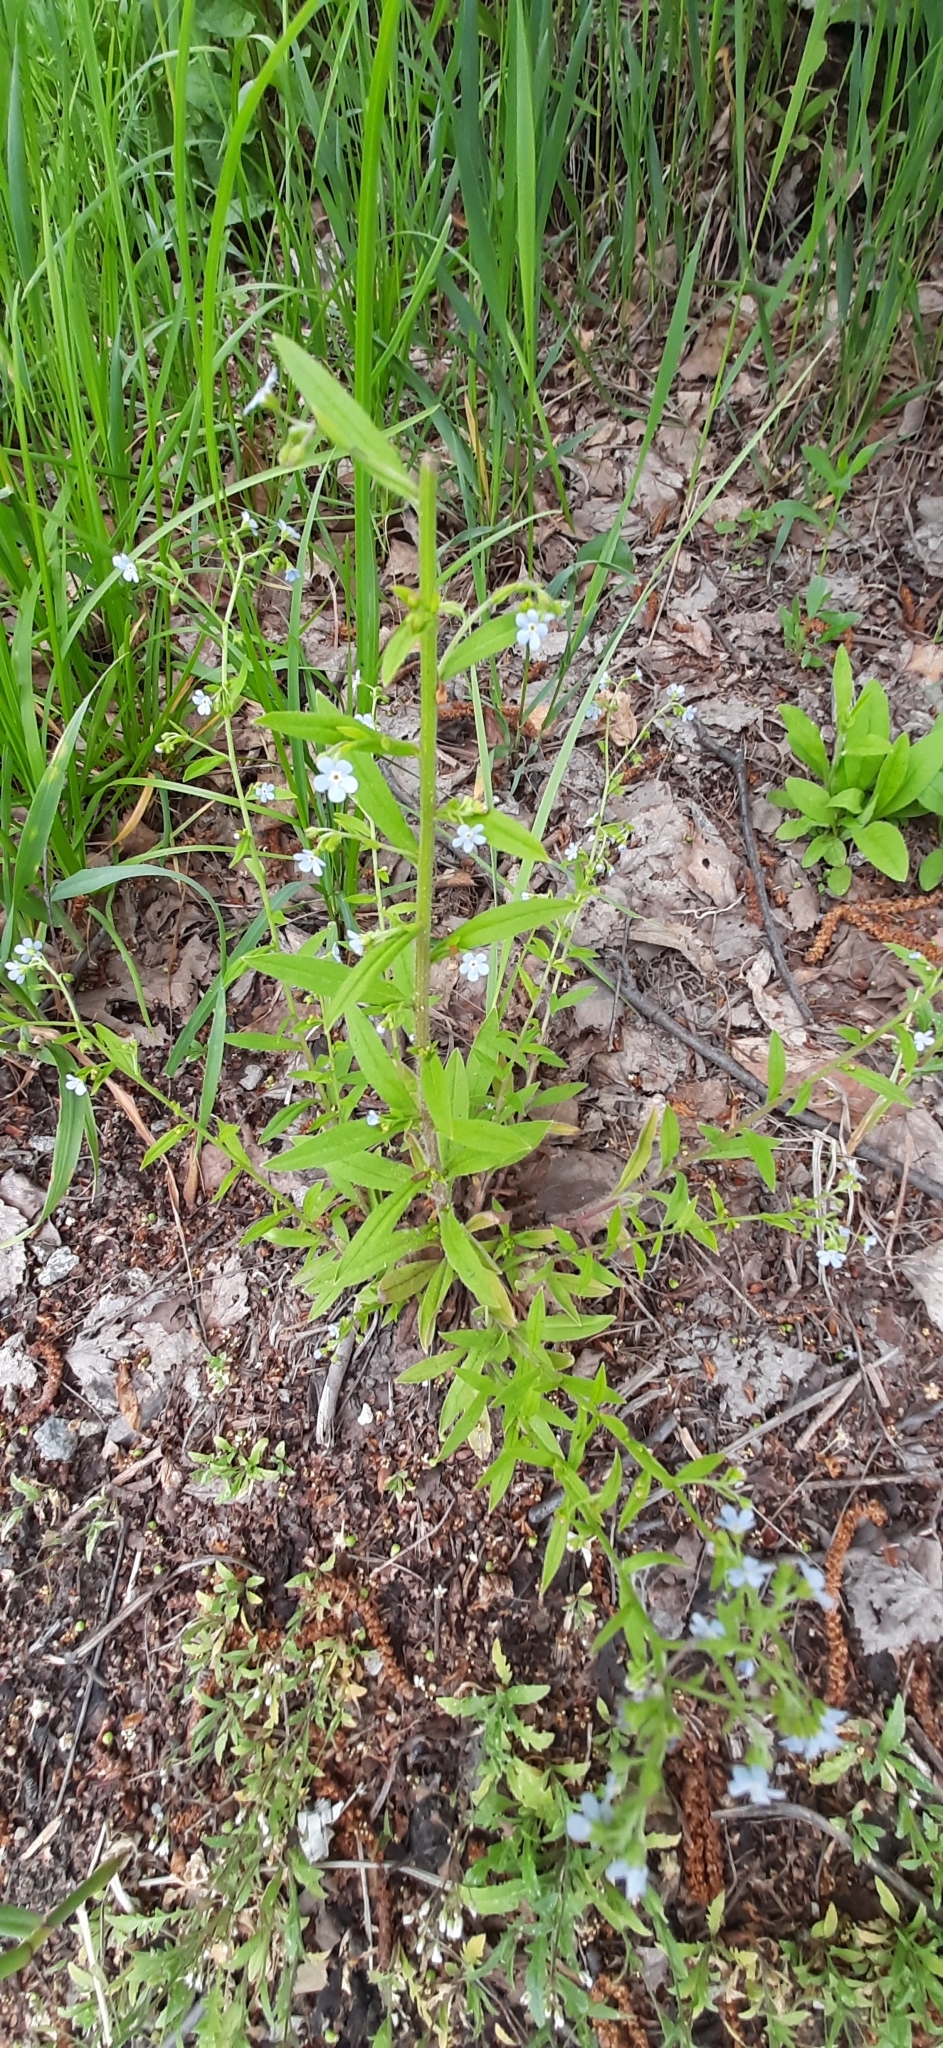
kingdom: Plantae
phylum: Tracheophyta
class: Magnoliopsida
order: Boraginales
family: Boraginaceae
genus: Hackelia
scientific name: Hackelia deflexa
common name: Nodding stickseed
